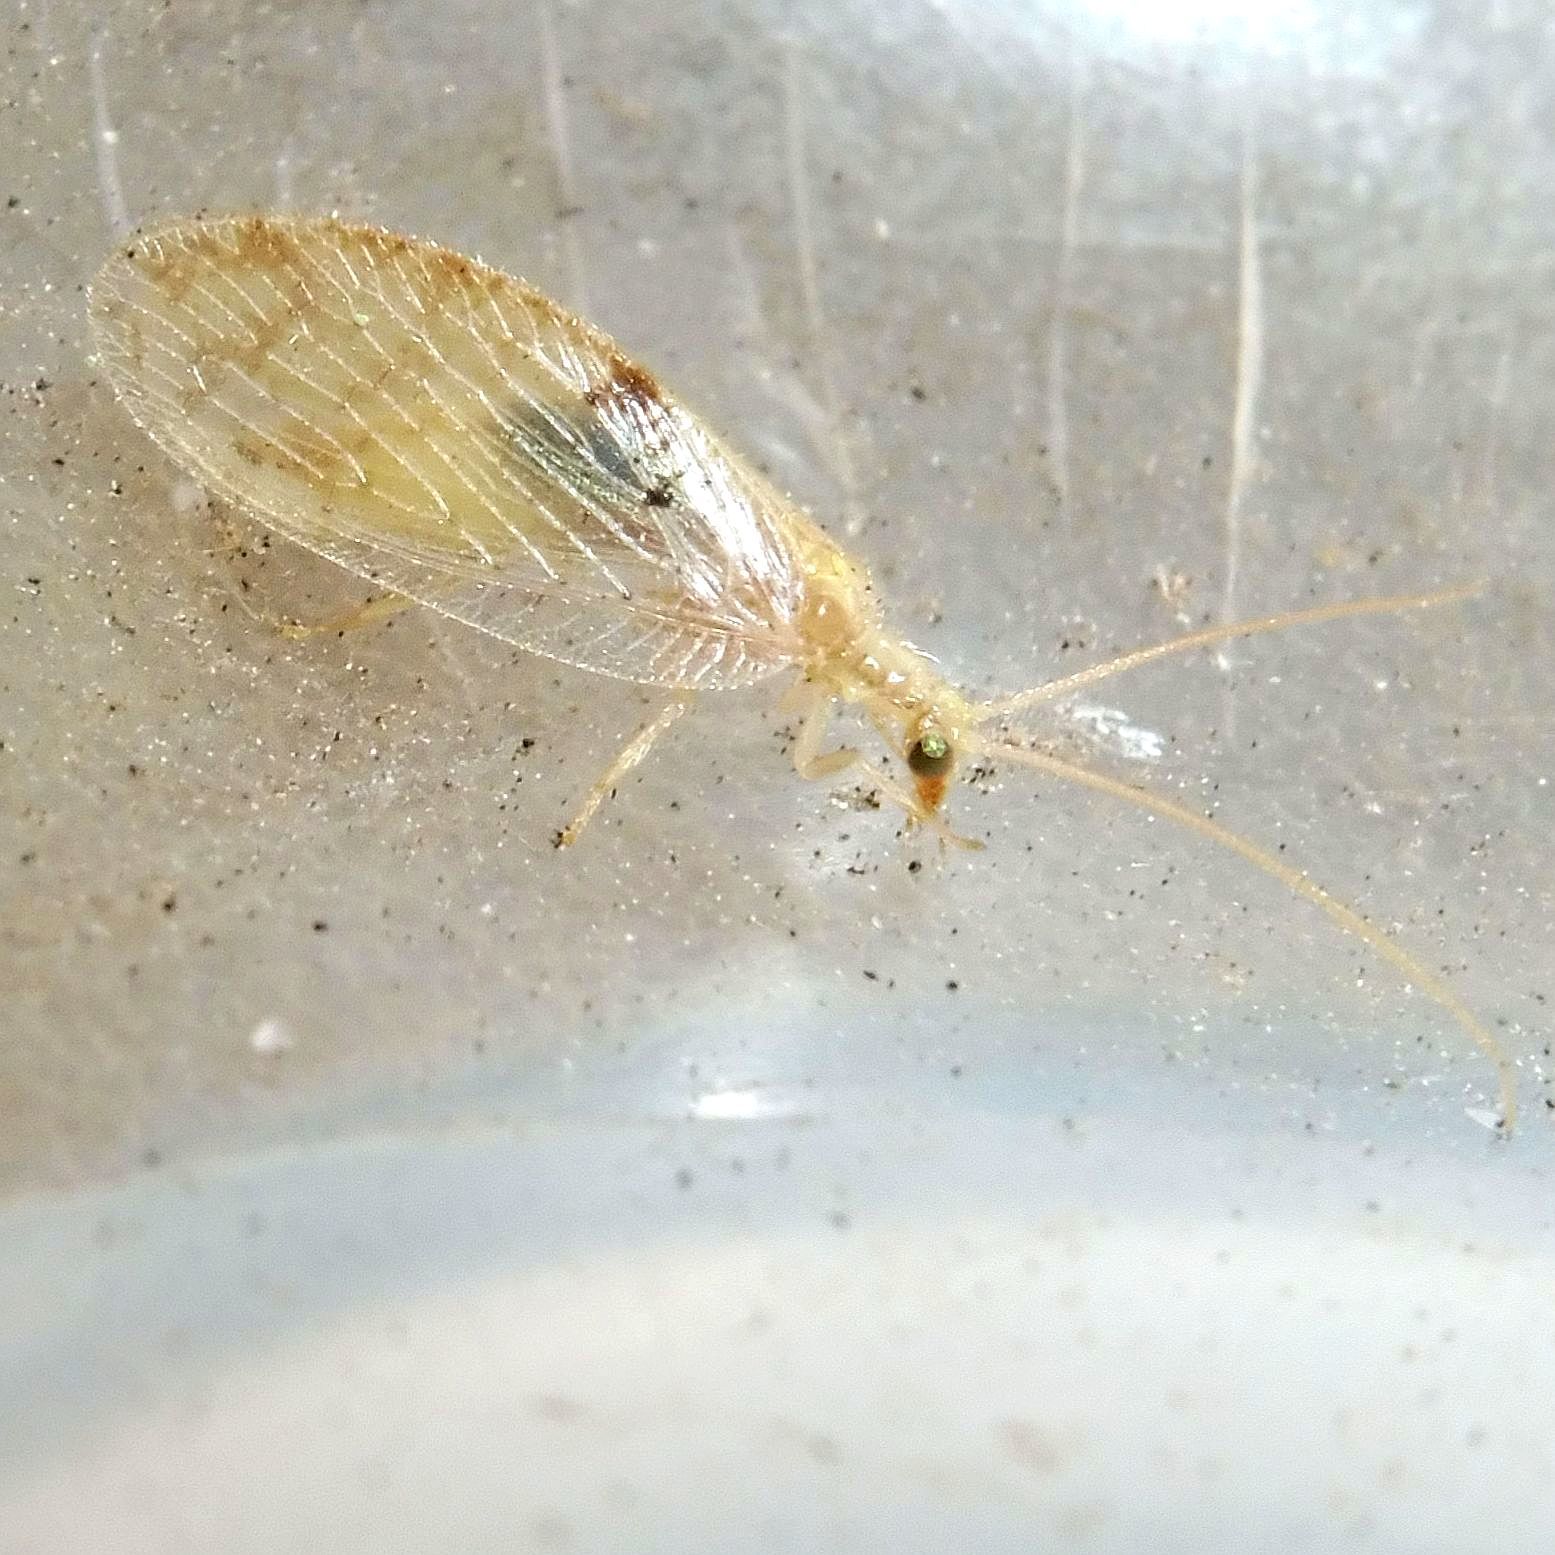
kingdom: Animalia
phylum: Arthropoda
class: Insecta
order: Neuroptera
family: Hemerobiidae
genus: Hemerobius
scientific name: Hemerobius lutescens
